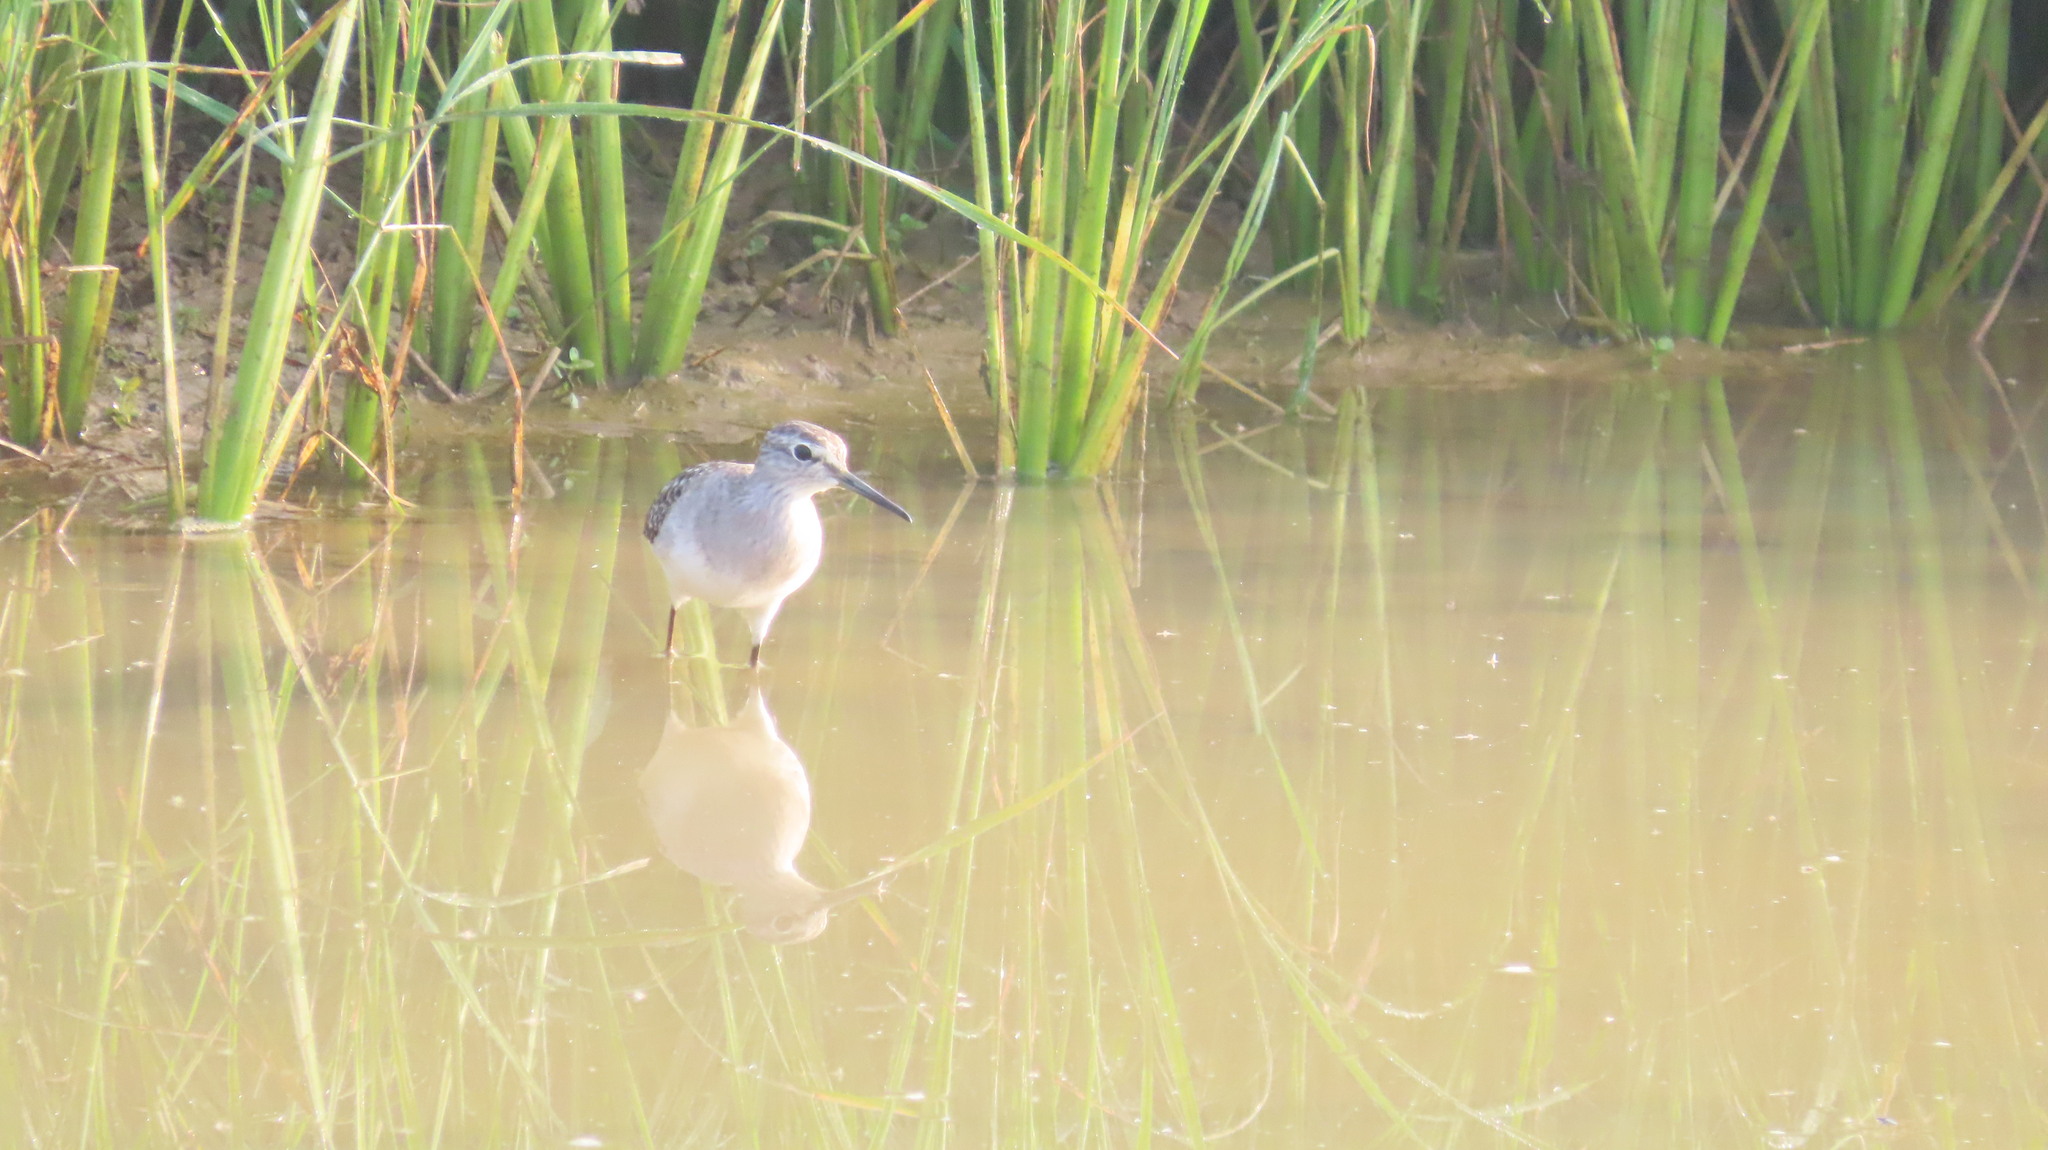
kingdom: Animalia
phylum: Chordata
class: Aves
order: Charadriiformes
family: Scolopacidae
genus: Tringa
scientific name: Tringa glareola
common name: Wood sandpiper
